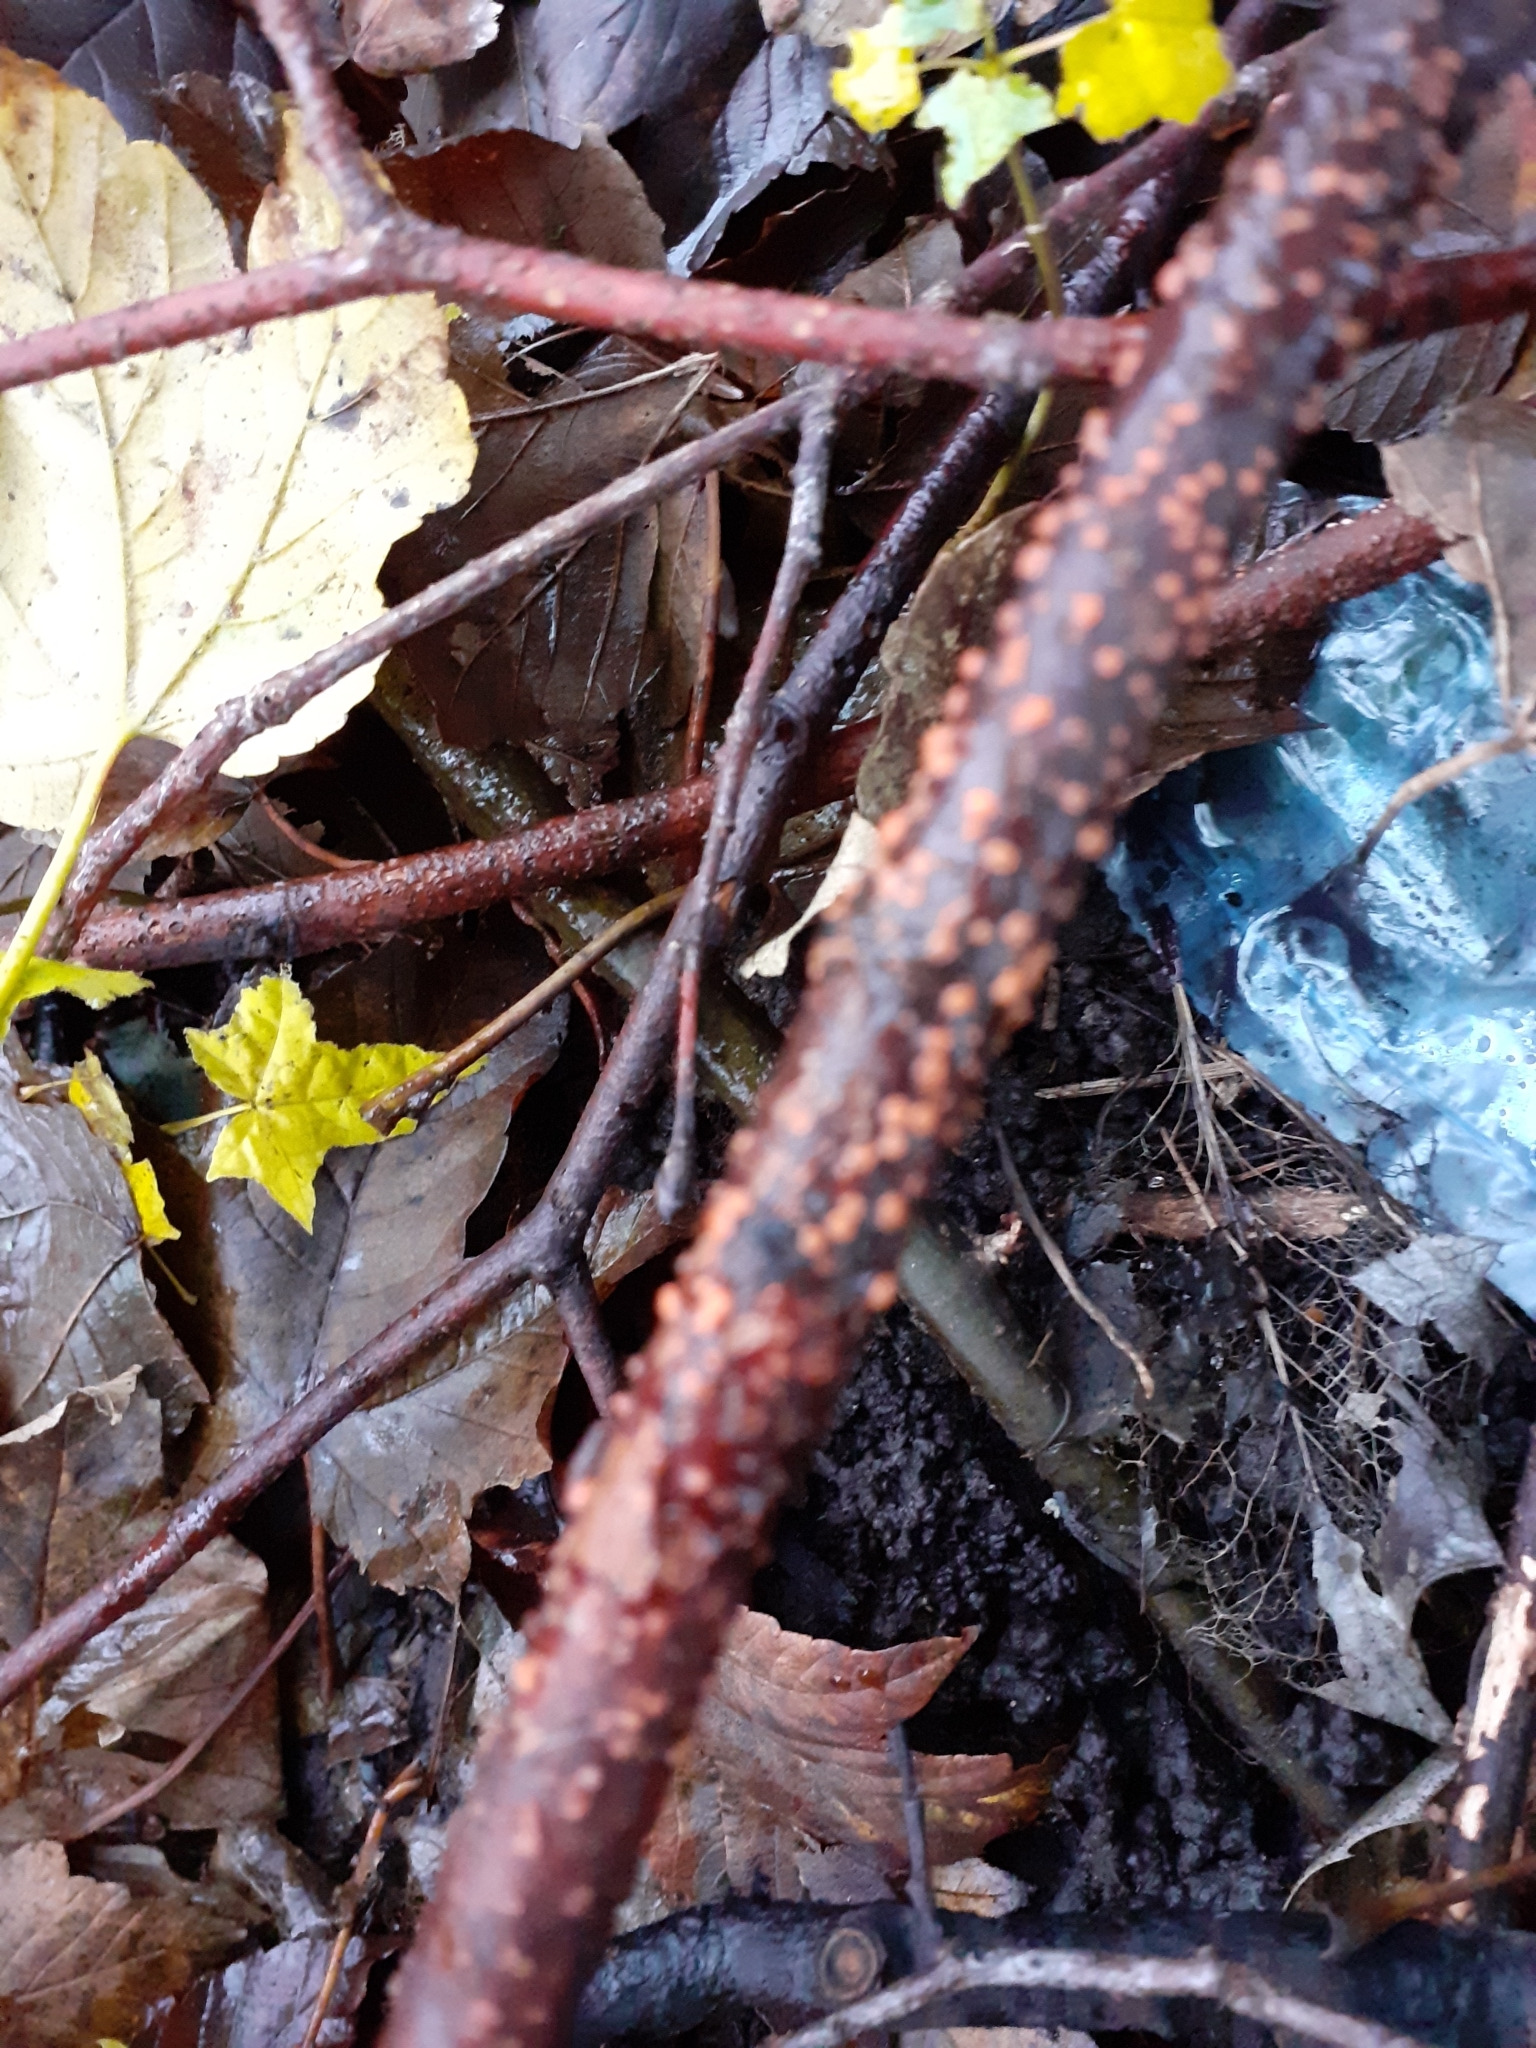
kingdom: Fungi
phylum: Ascomycota
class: Sordariomycetes
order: Hypocreales
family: Nectriaceae
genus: Nectria
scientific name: Nectria cinnabarina
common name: Coral spot
